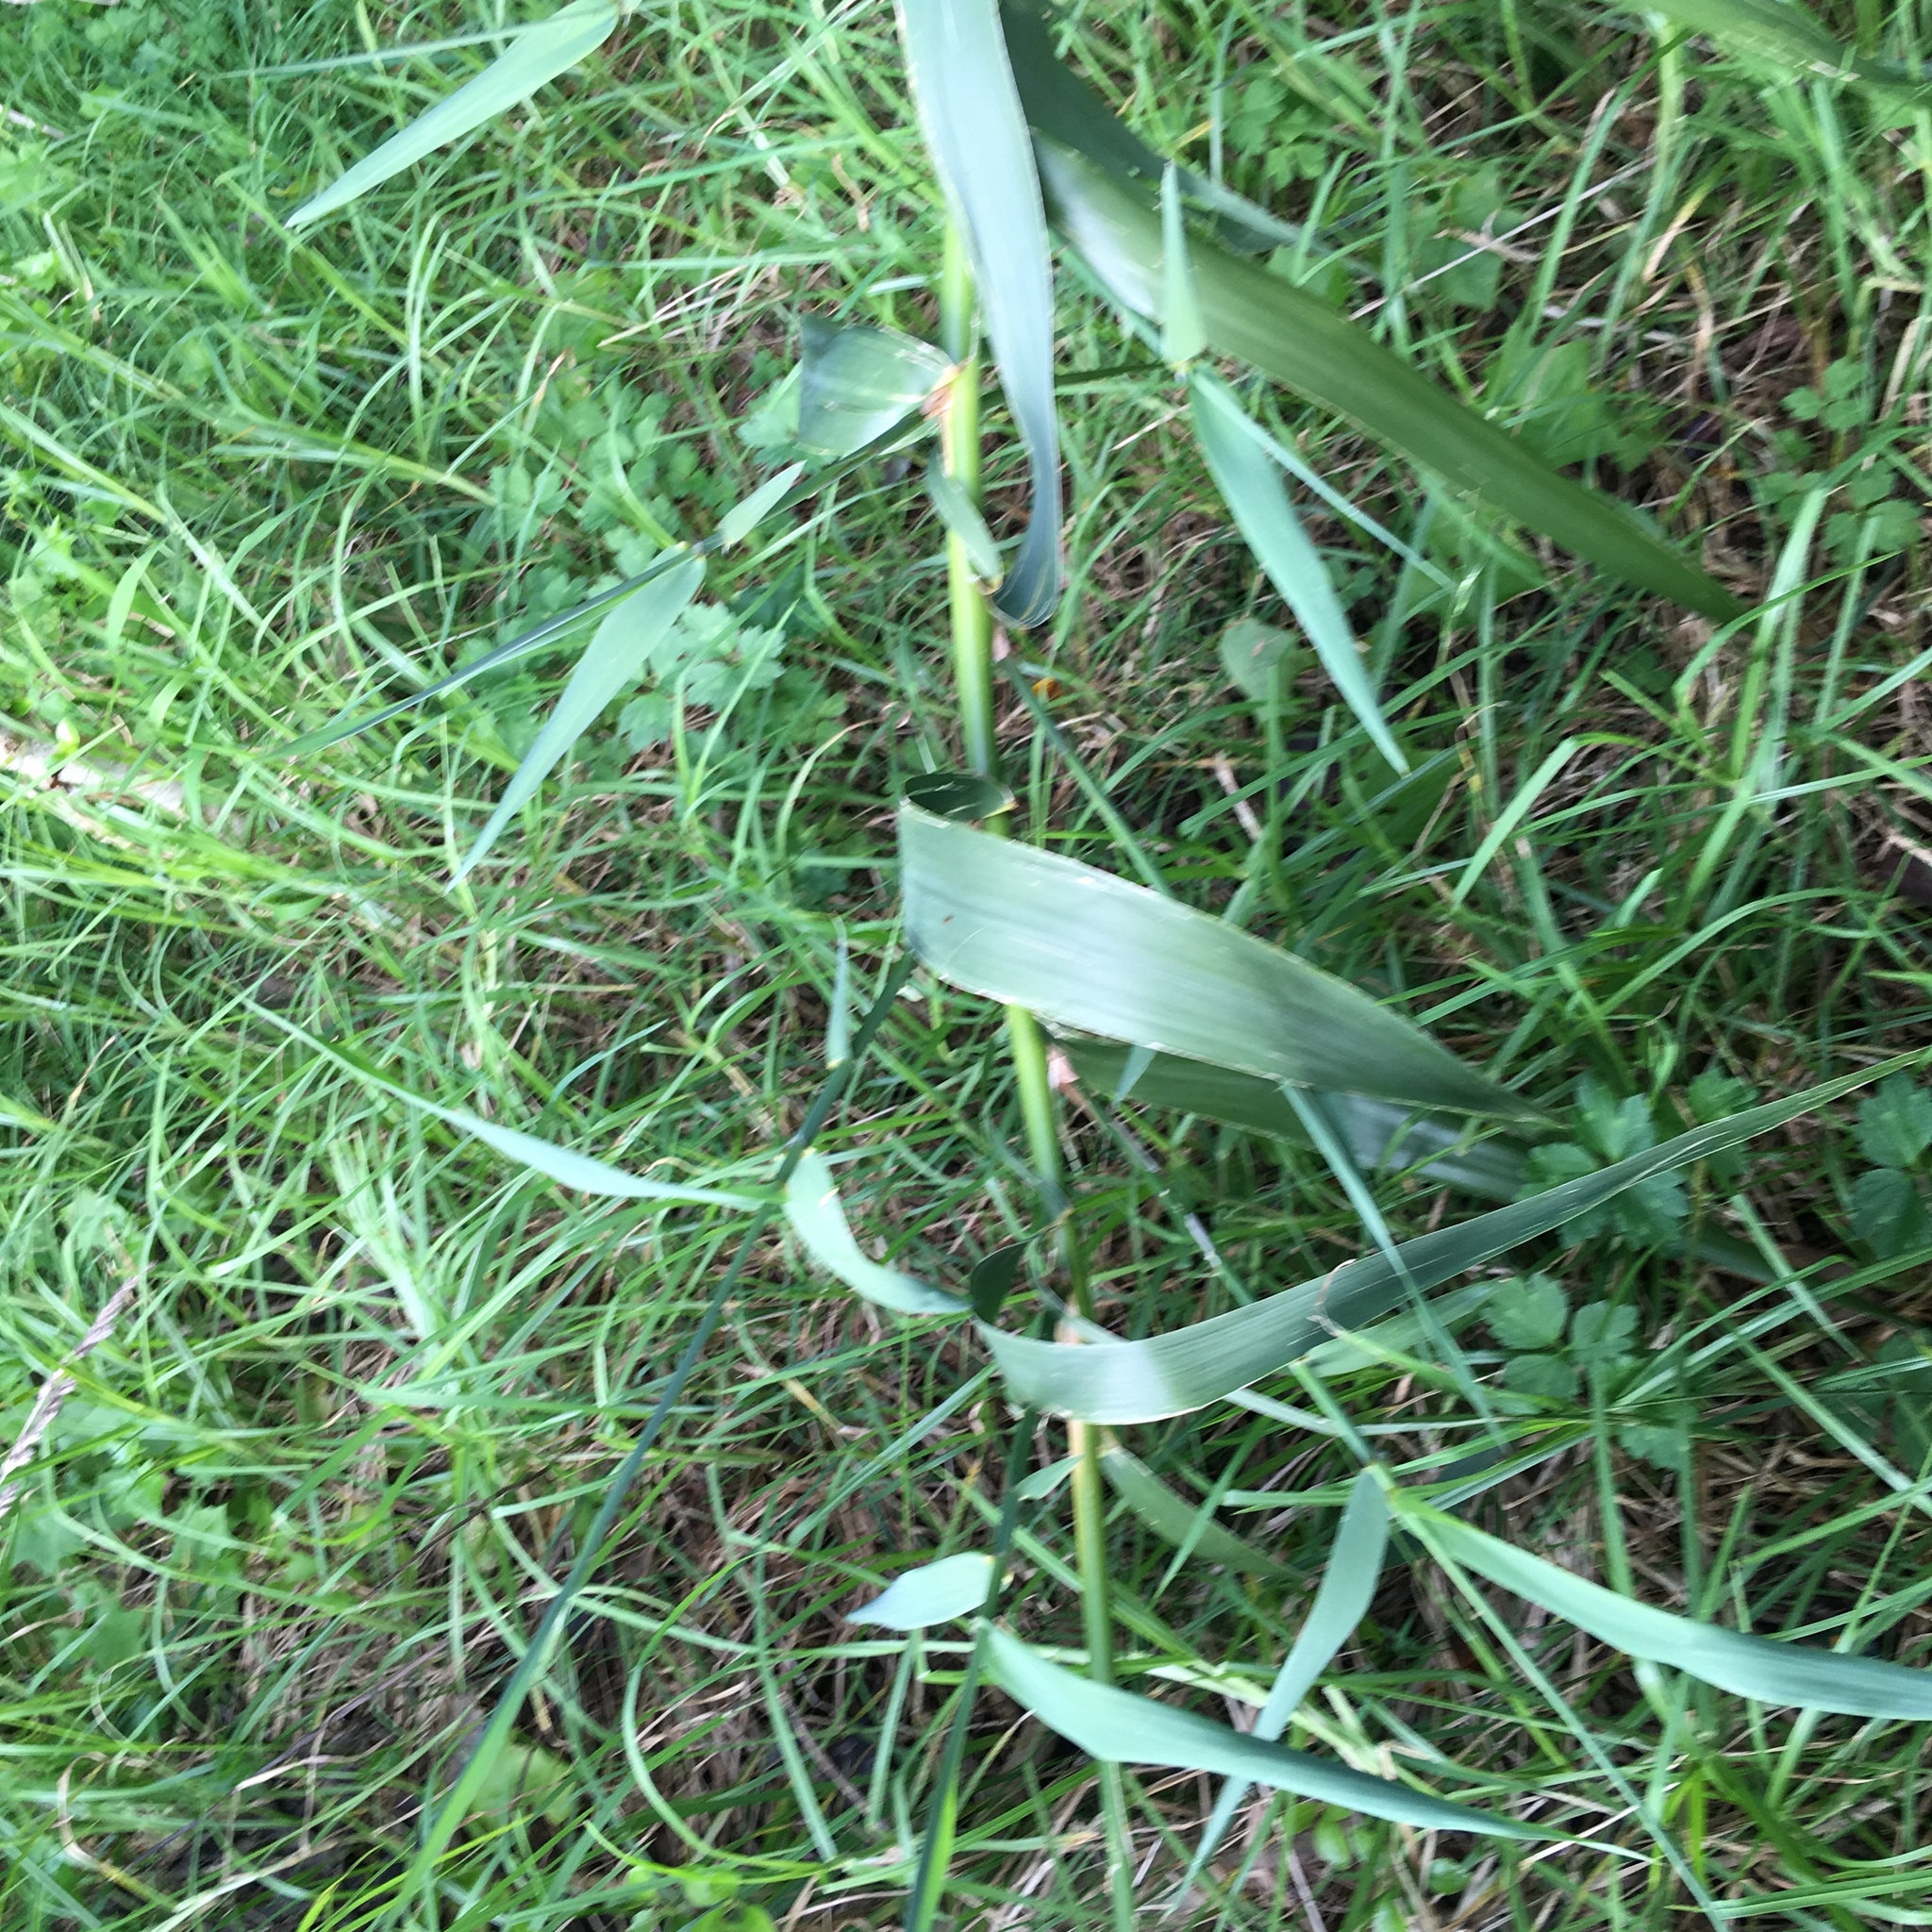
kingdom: Plantae
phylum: Tracheophyta
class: Liliopsida
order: Poales
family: Poaceae
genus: Arundo
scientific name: Arundo donax
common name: Giant reed
